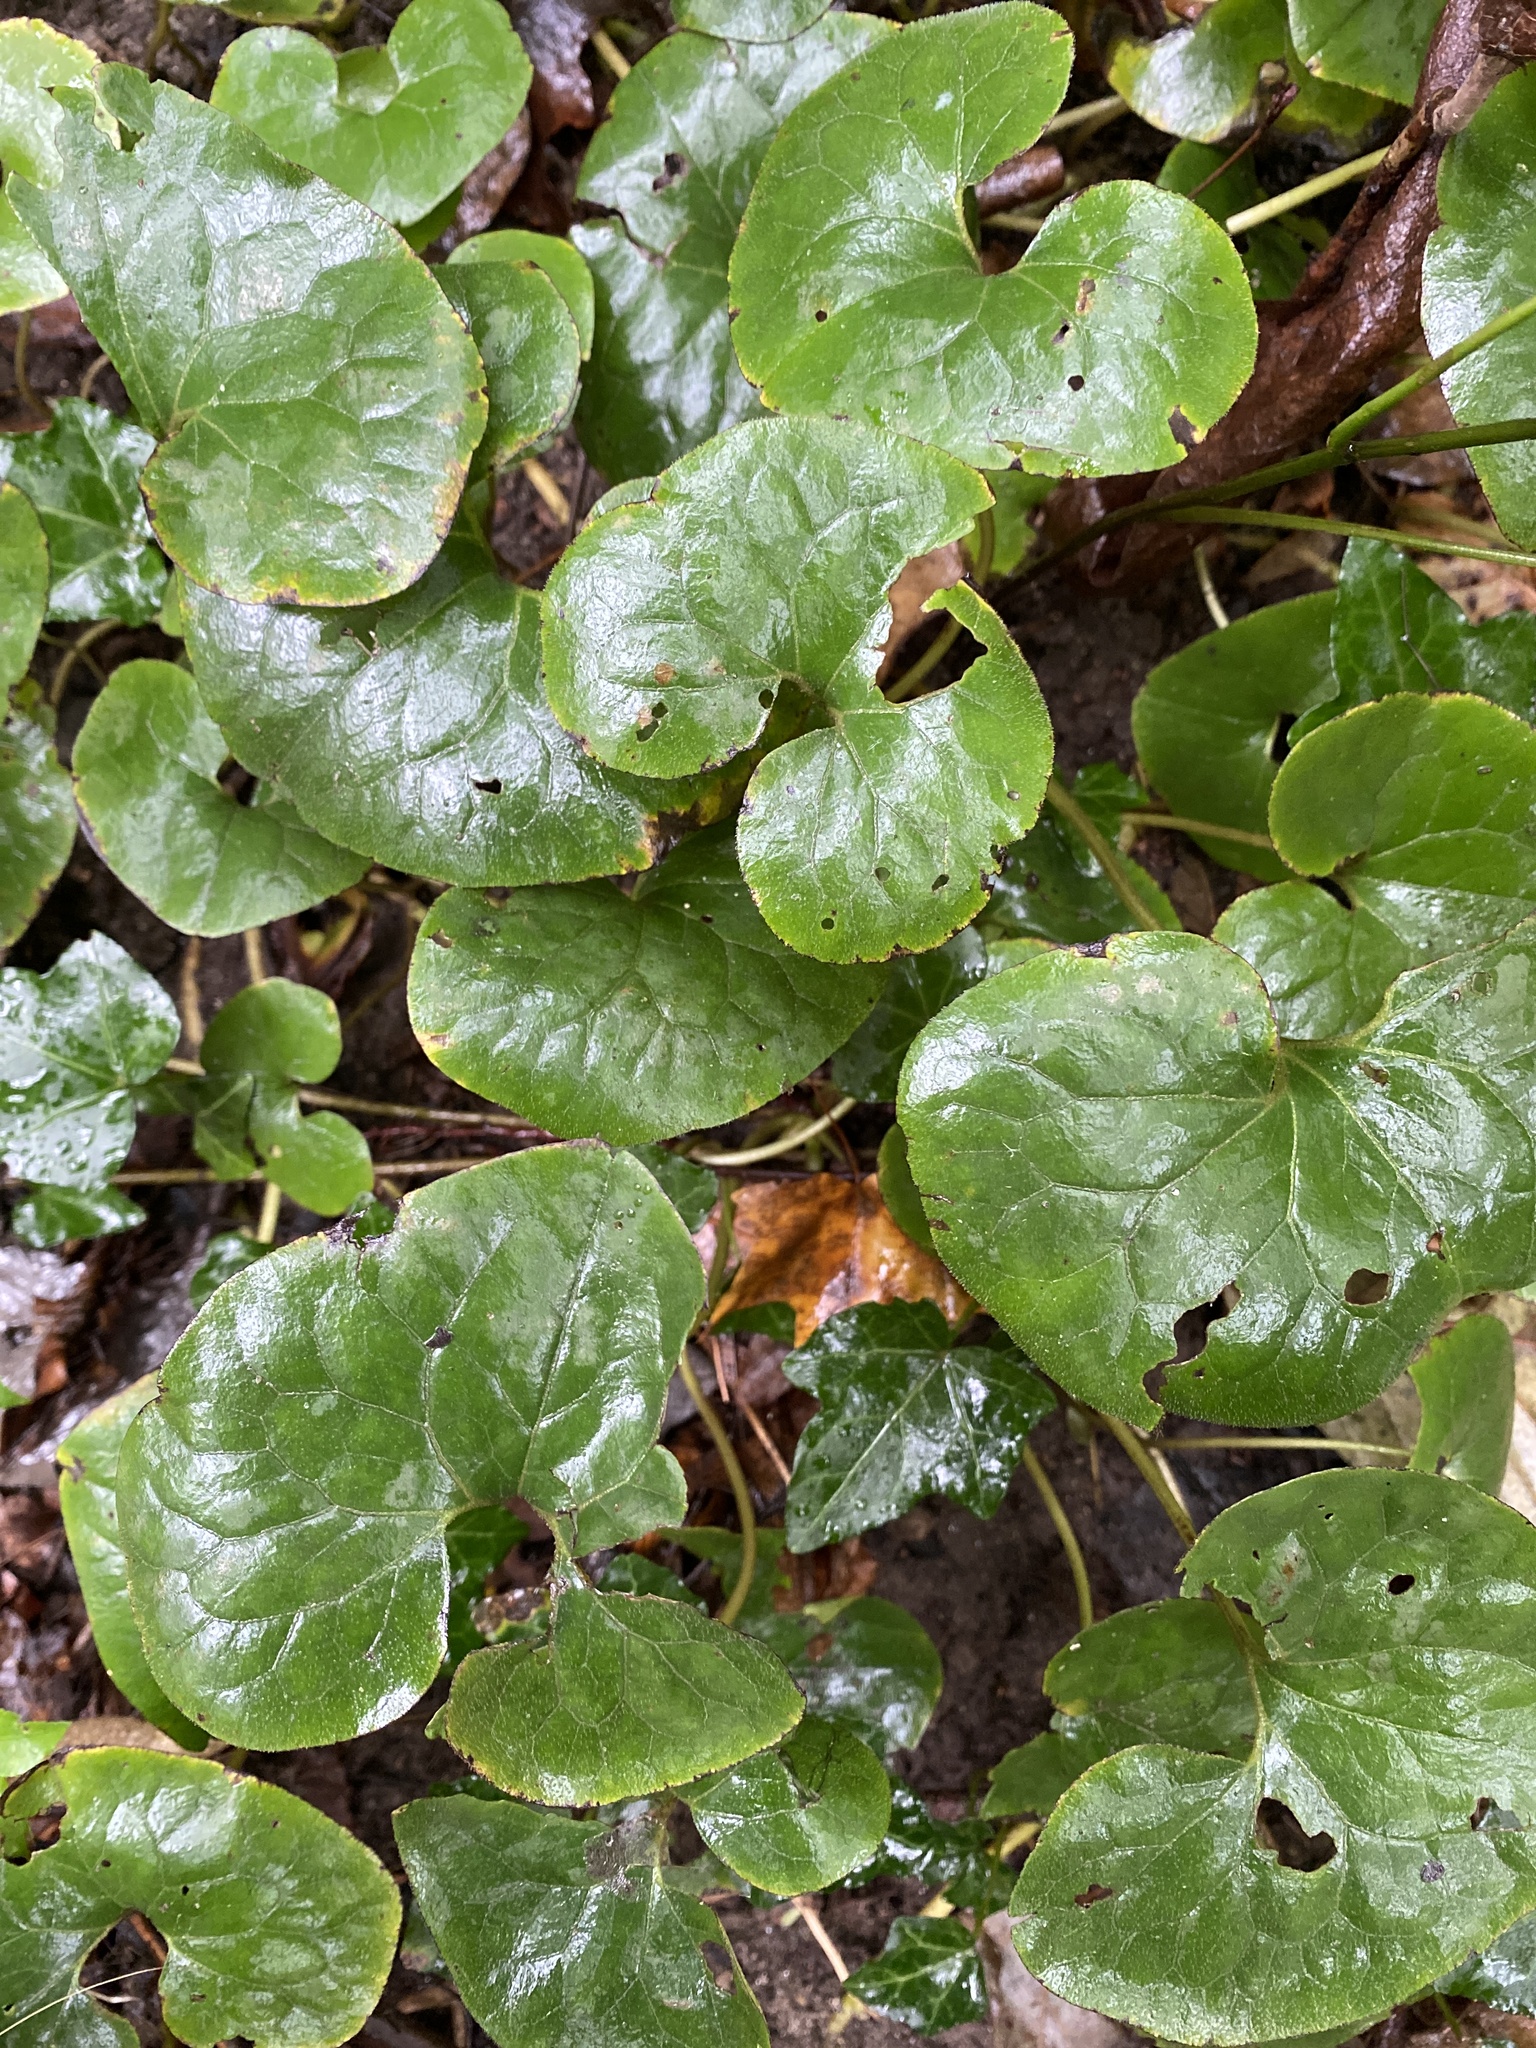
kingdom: Plantae
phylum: Tracheophyta
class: Magnoliopsida
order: Piperales
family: Aristolochiaceae
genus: Asarum
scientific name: Asarum canadense
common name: Wild ginger
